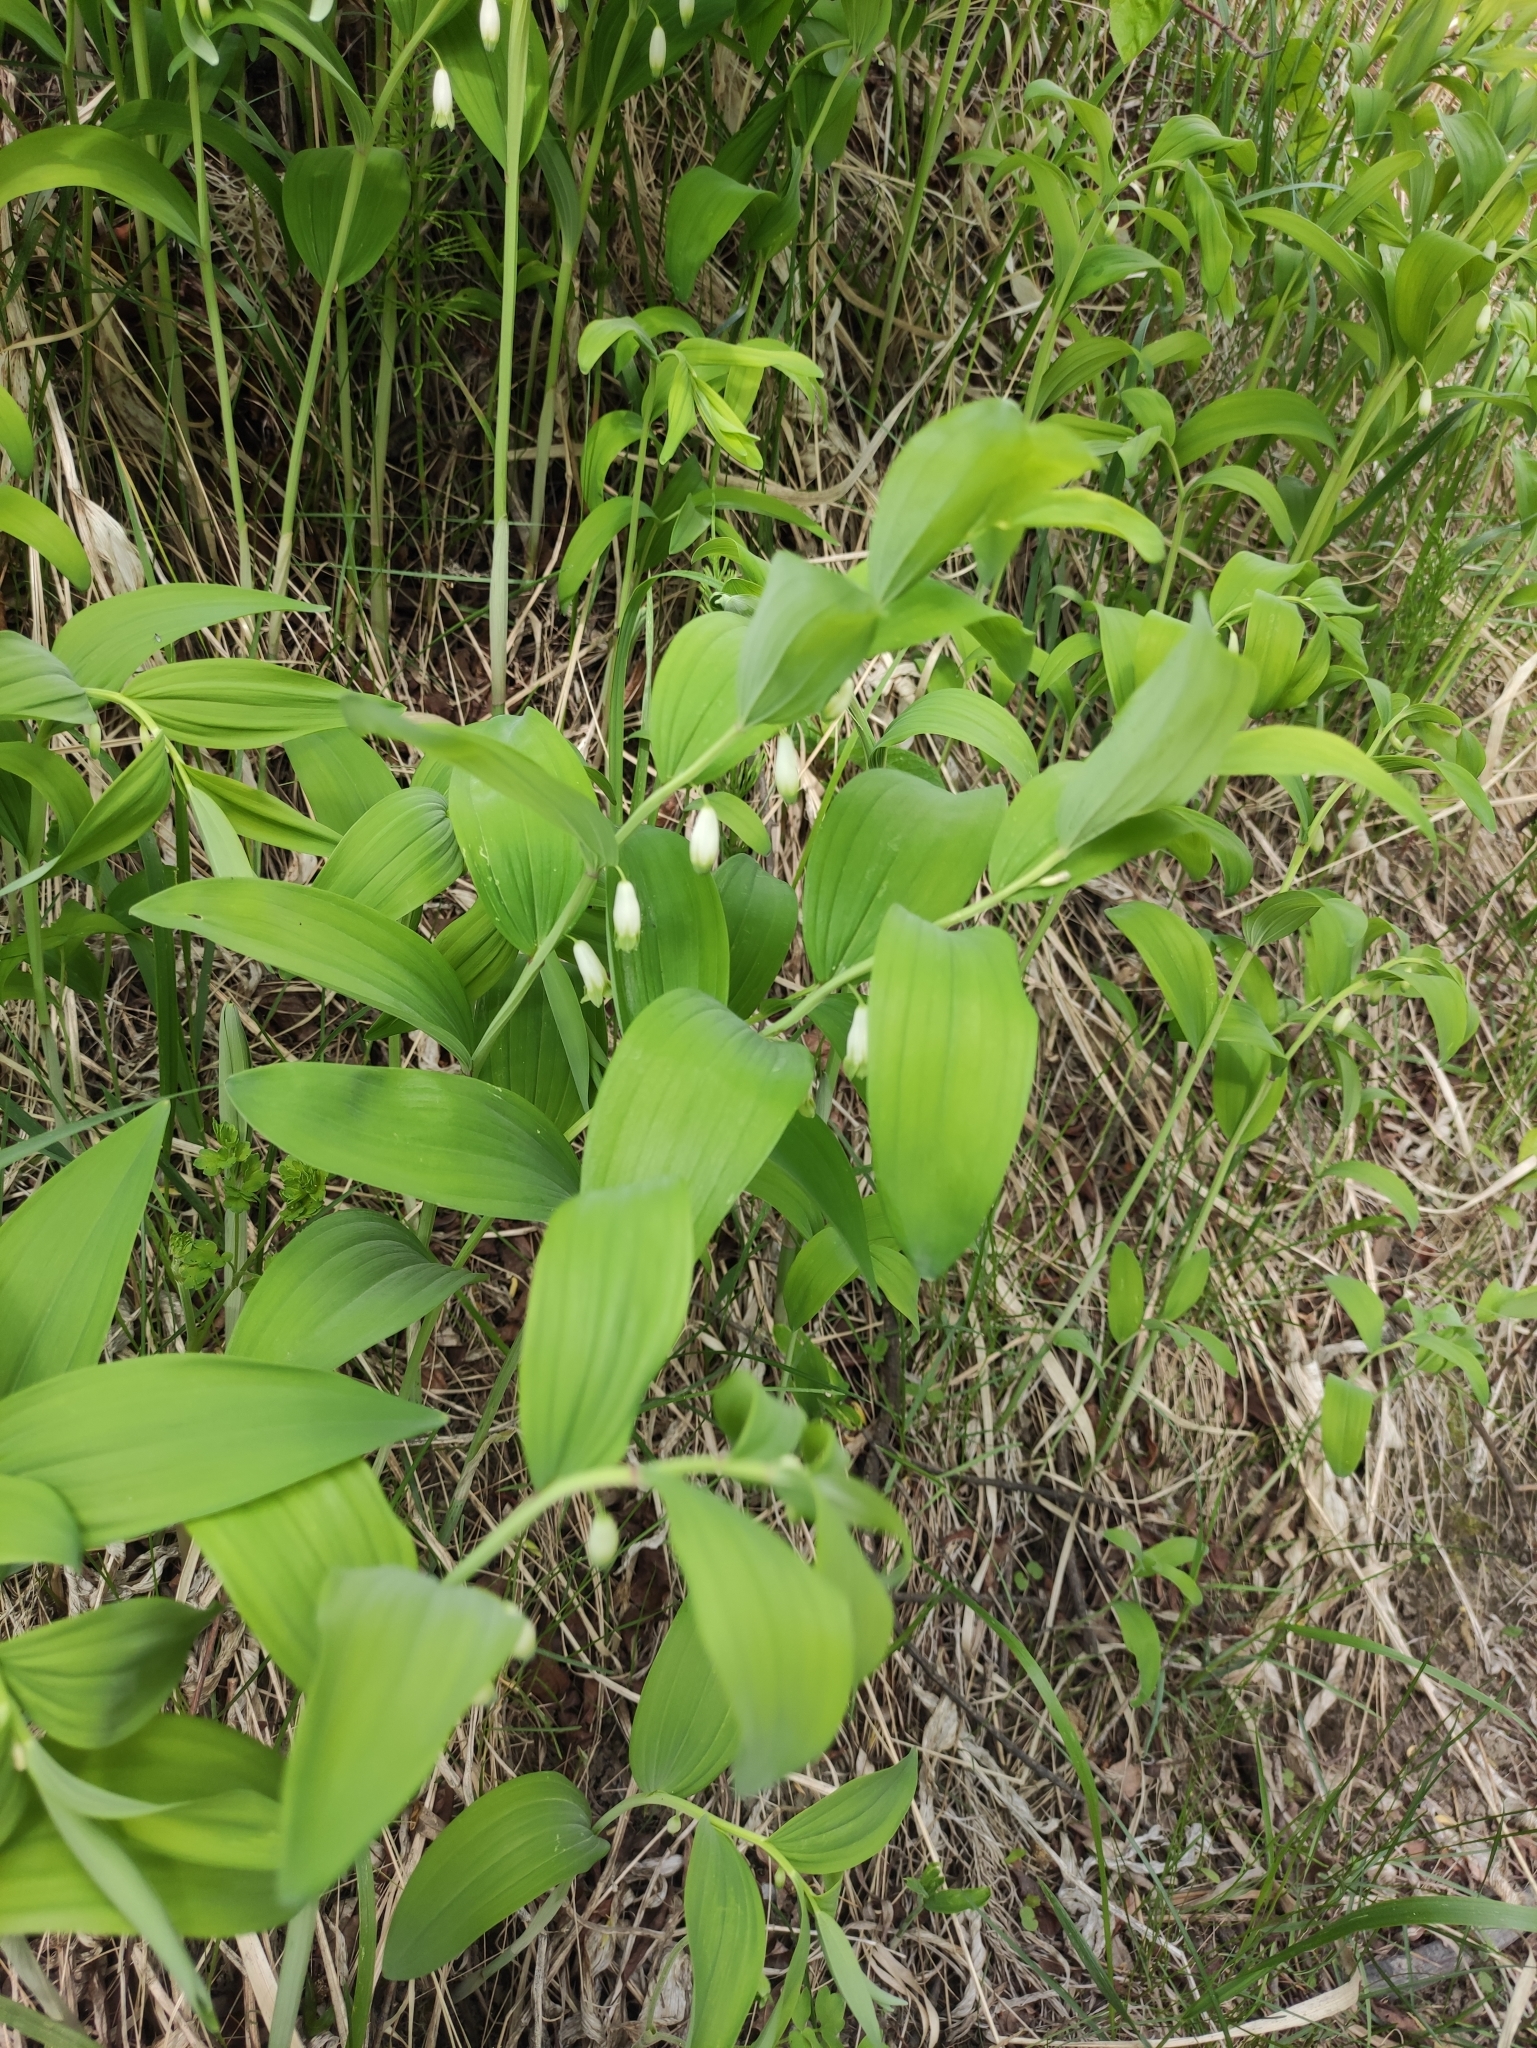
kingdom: Plantae
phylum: Tracheophyta
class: Liliopsida
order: Asparagales
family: Asparagaceae
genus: Polygonatum
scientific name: Polygonatum odoratum
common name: Angular solomon's-seal
